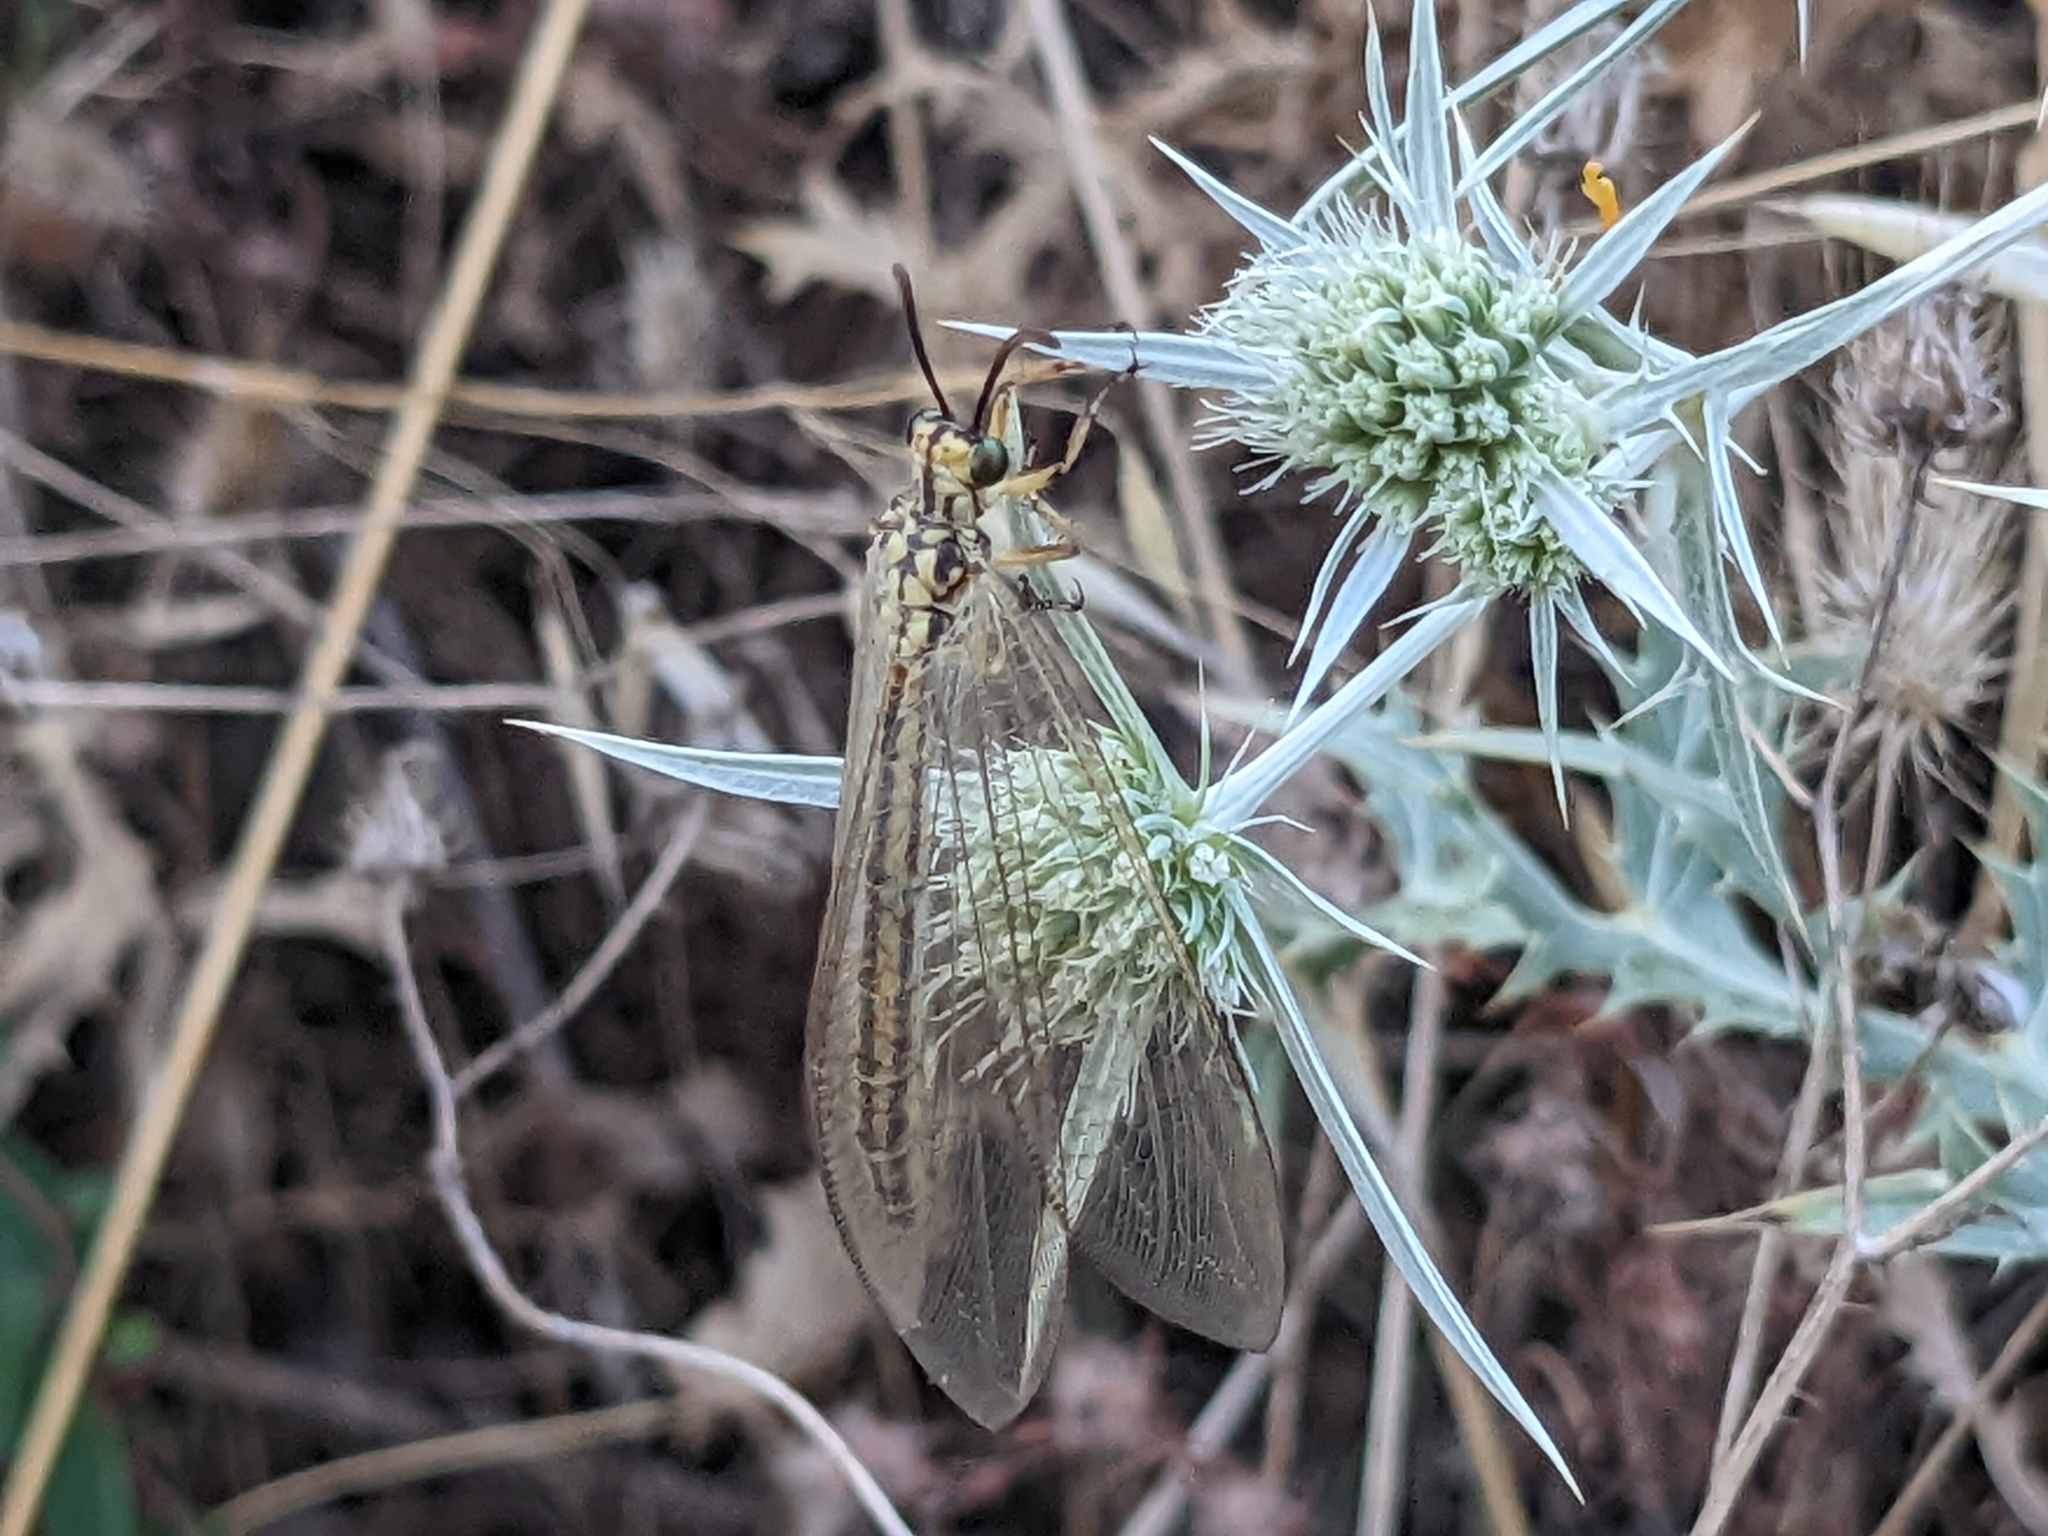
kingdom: Animalia
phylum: Arthropoda
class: Insecta
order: Neuroptera
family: Myrmeleontidae
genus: Myrmecaelurus
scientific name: Myrmecaelurus trigrammus
